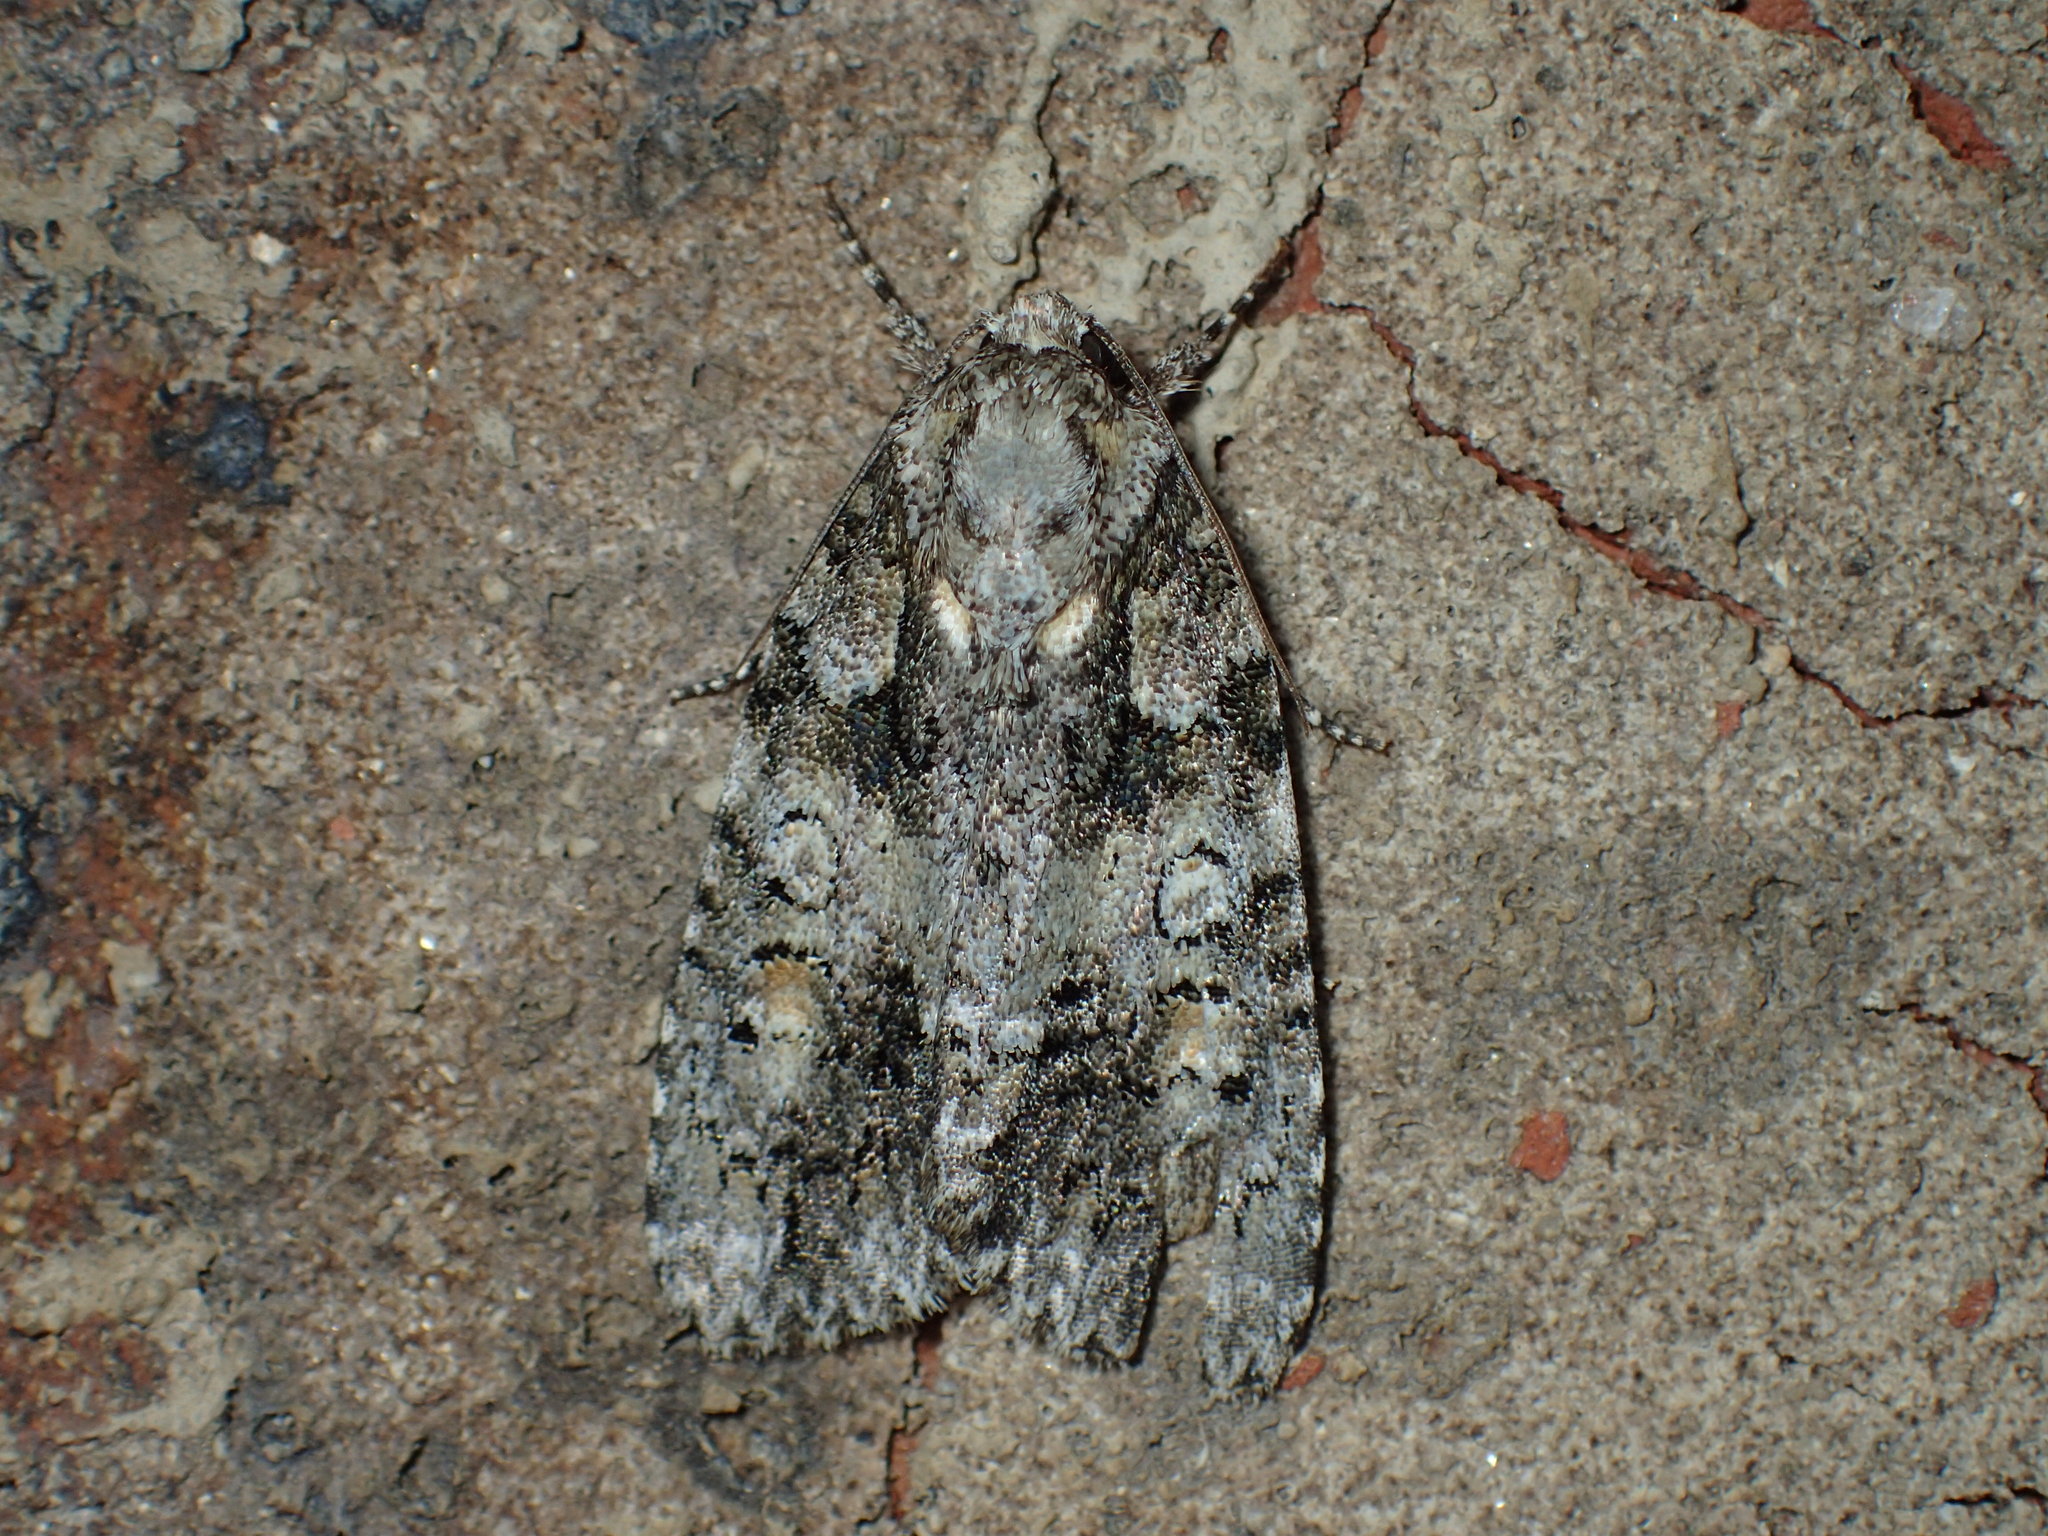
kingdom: Animalia
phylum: Arthropoda
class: Insecta
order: Lepidoptera
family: Noctuidae
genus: Acronicta
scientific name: Acronicta increta
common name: Eclipsed oak dagger
